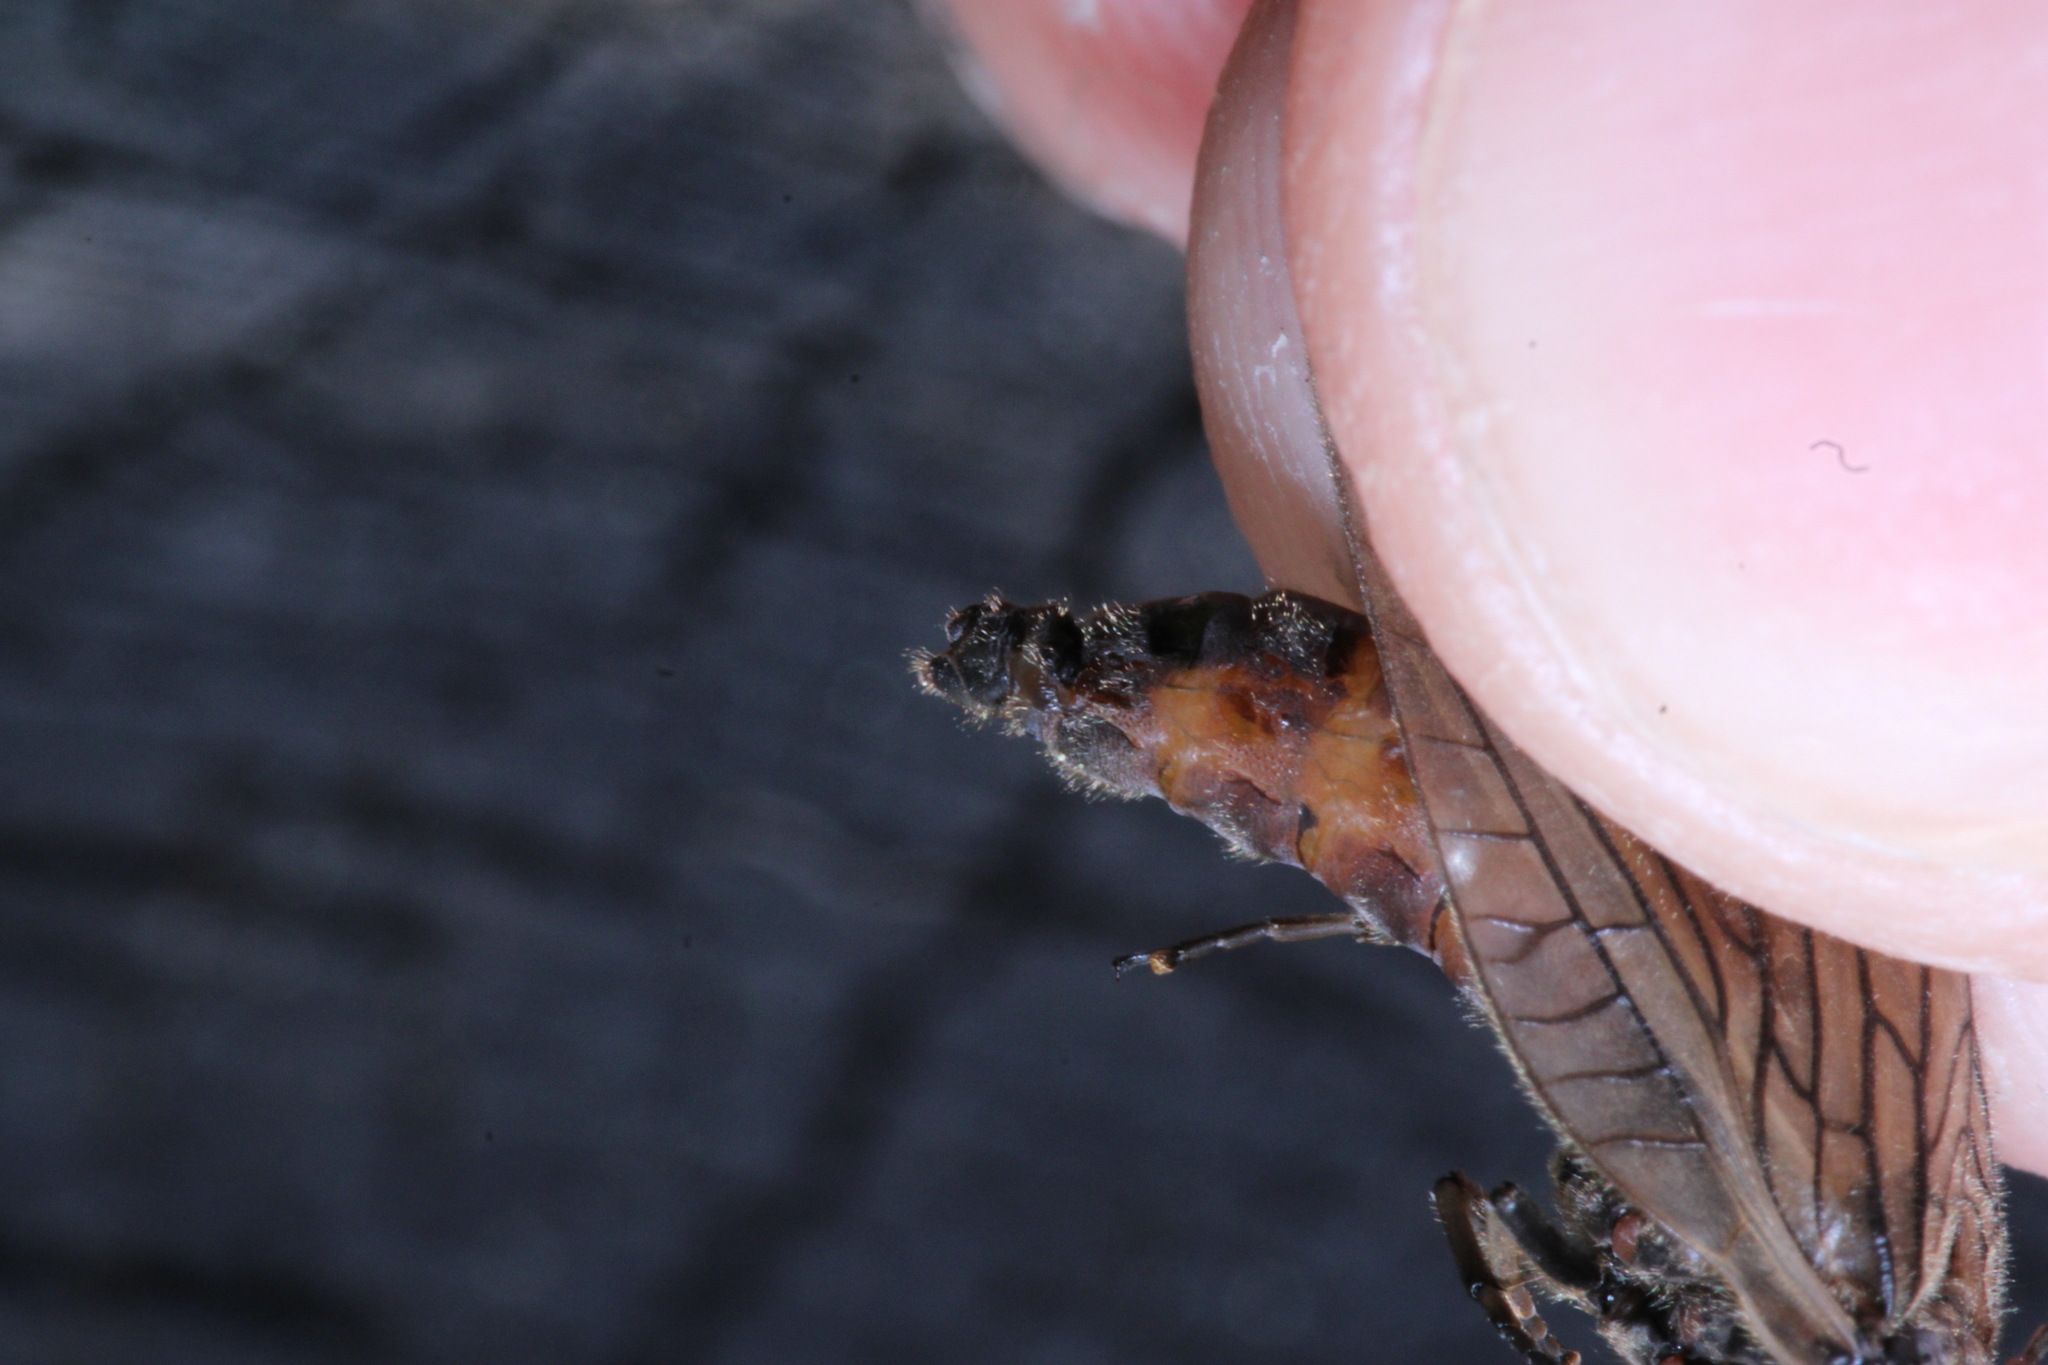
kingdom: Animalia
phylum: Arthropoda
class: Insecta
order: Megaloptera
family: Sialidae
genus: Sialis
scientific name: Sialis lutaria
